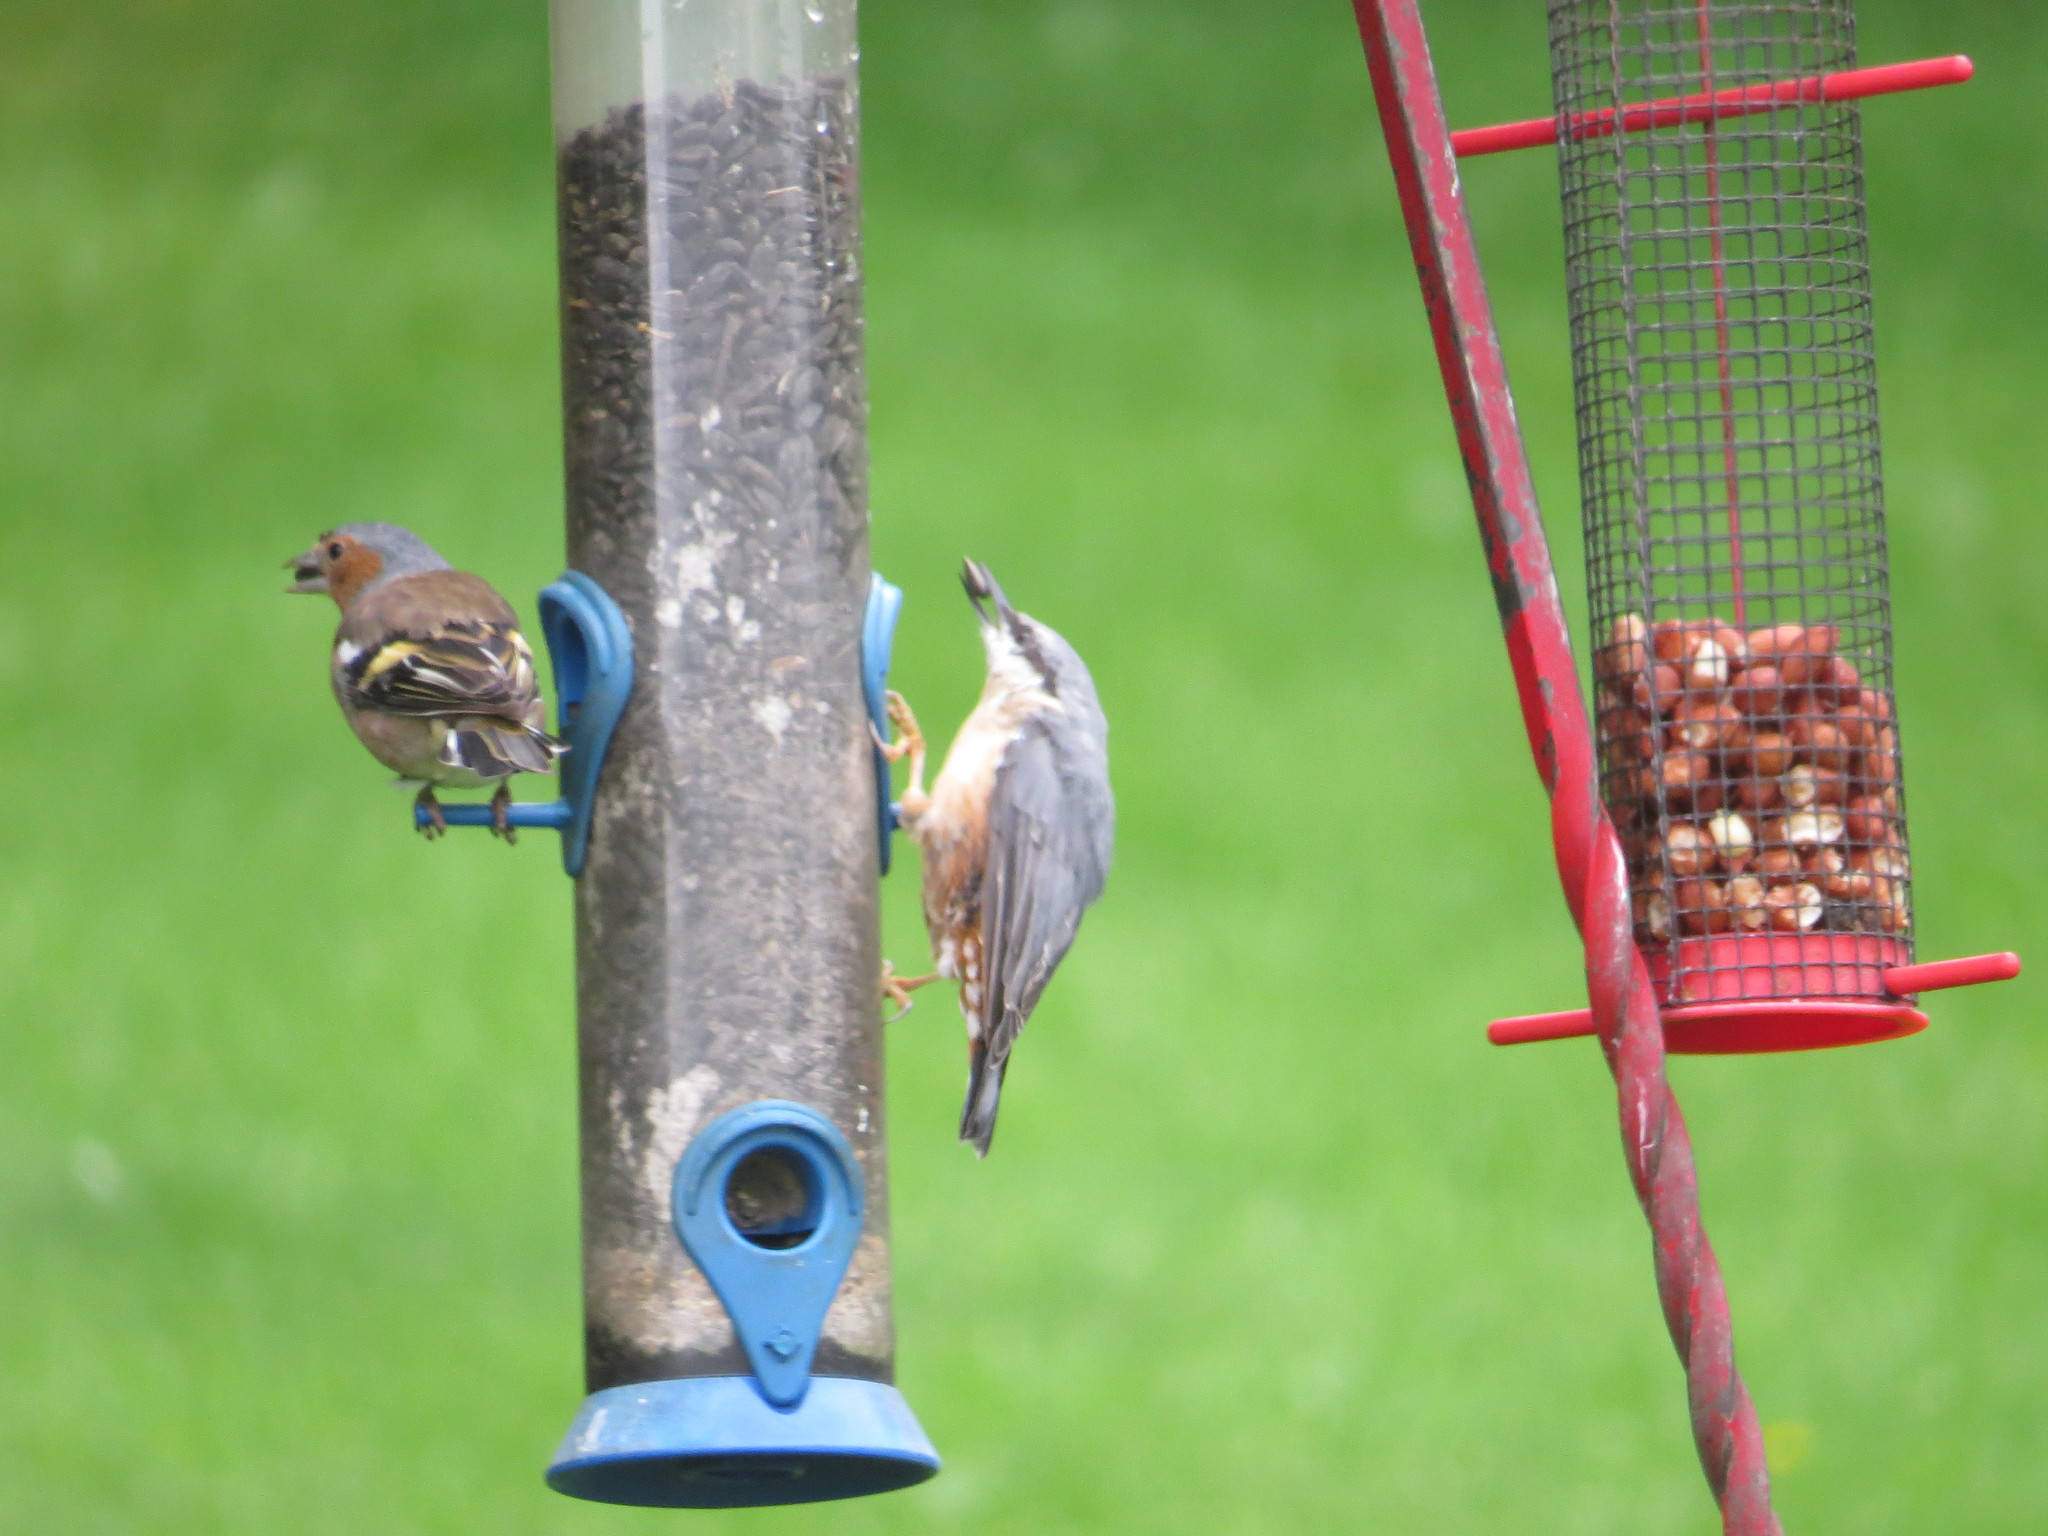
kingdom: Animalia
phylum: Chordata
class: Aves
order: Passeriformes
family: Sittidae
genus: Sitta
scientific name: Sitta europaea
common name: Eurasian nuthatch
